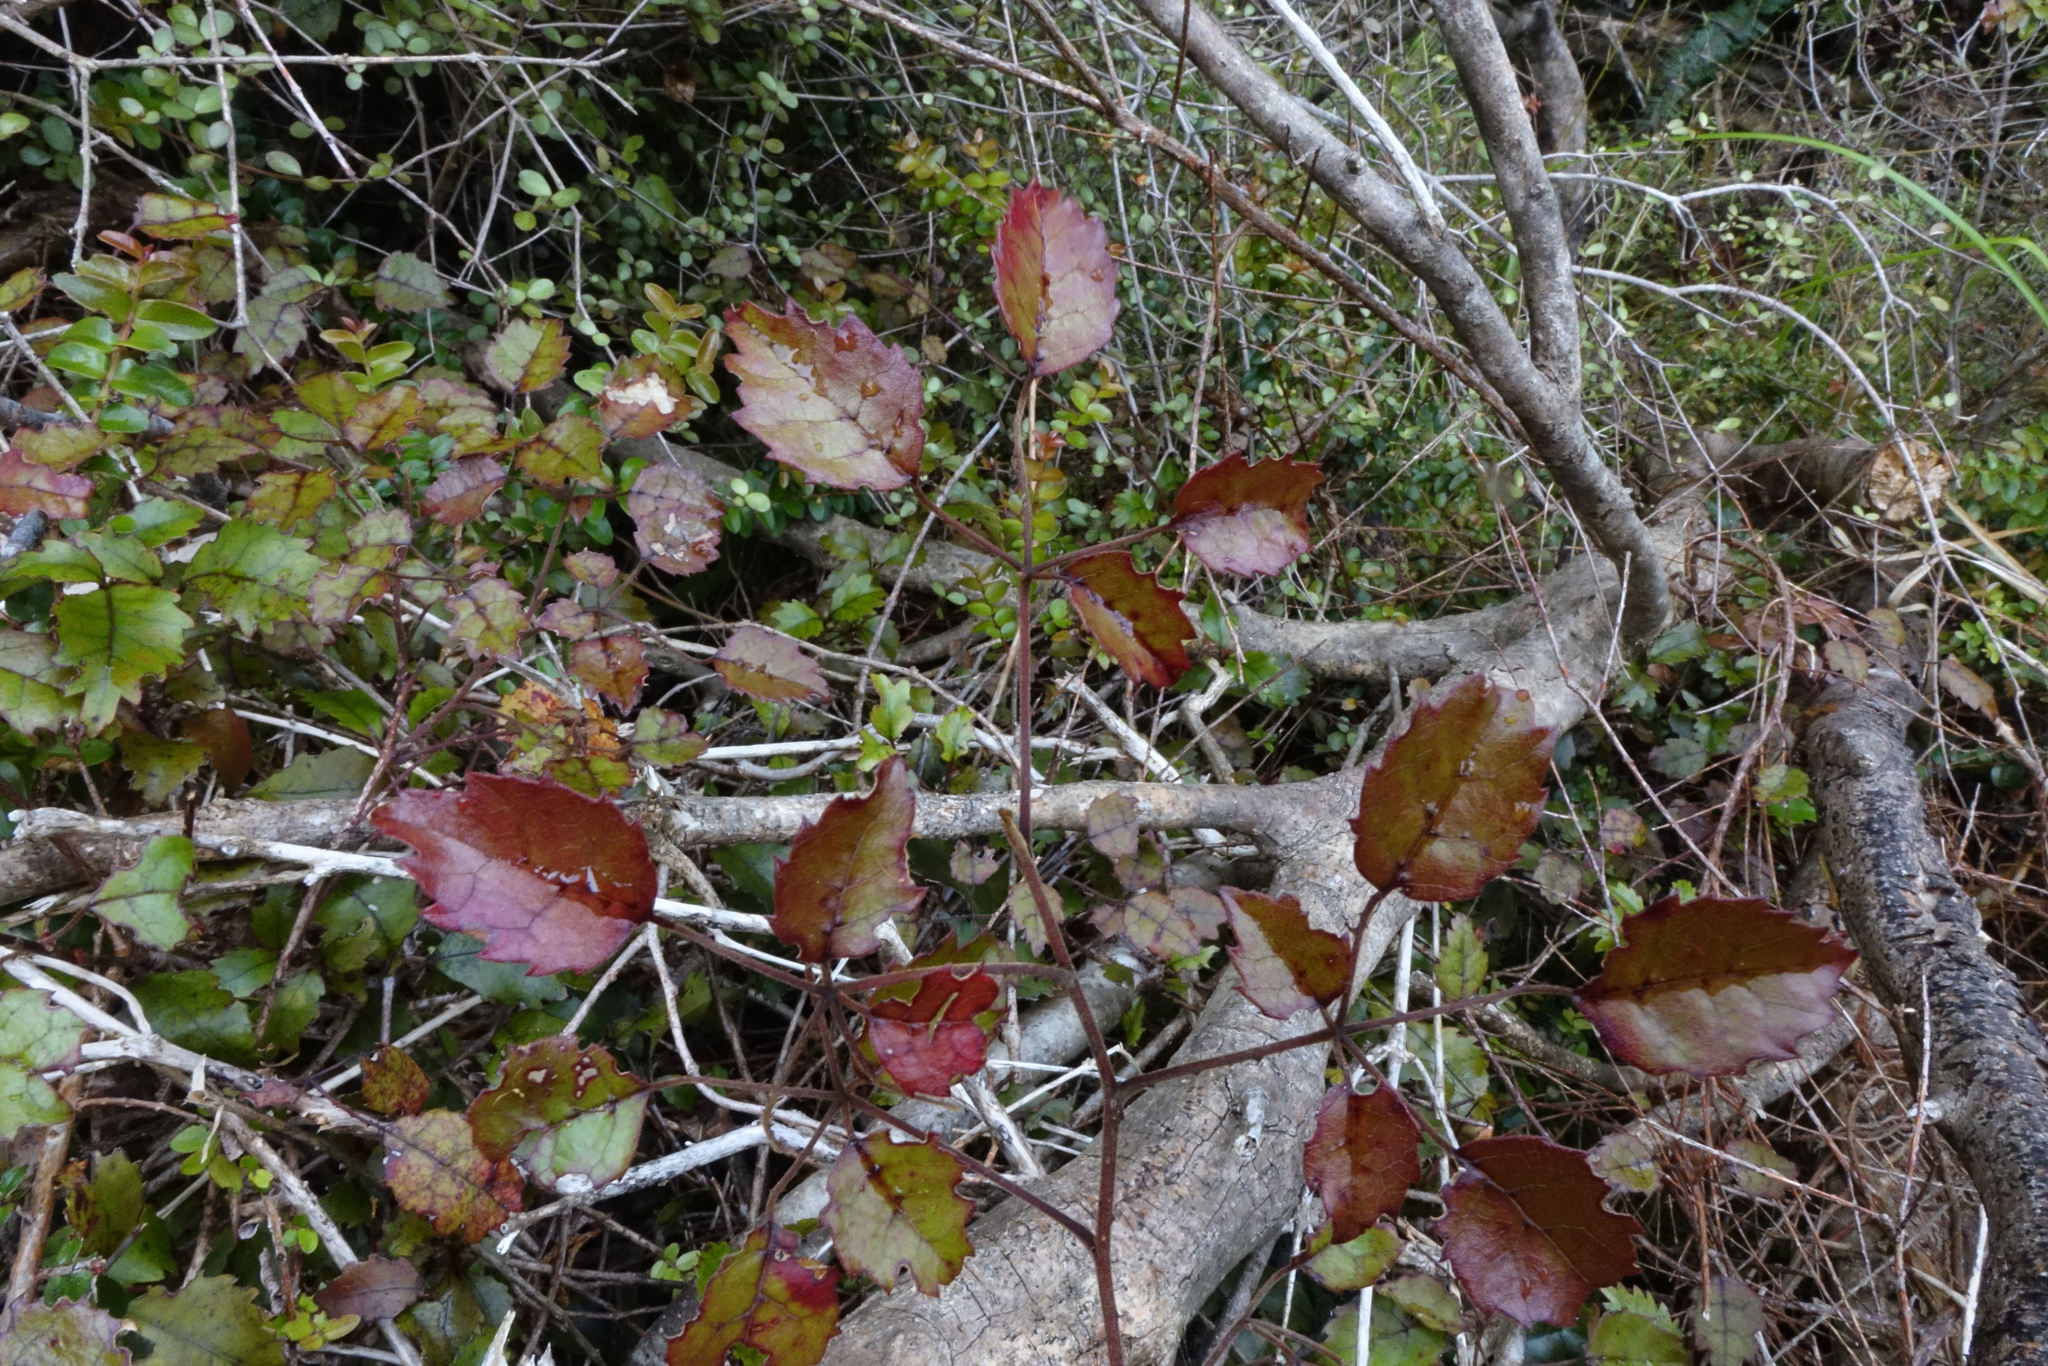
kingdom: Plantae
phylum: Tracheophyta
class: Magnoliopsida
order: Rosales
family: Rosaceae
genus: Rubus
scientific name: Rubus australis
